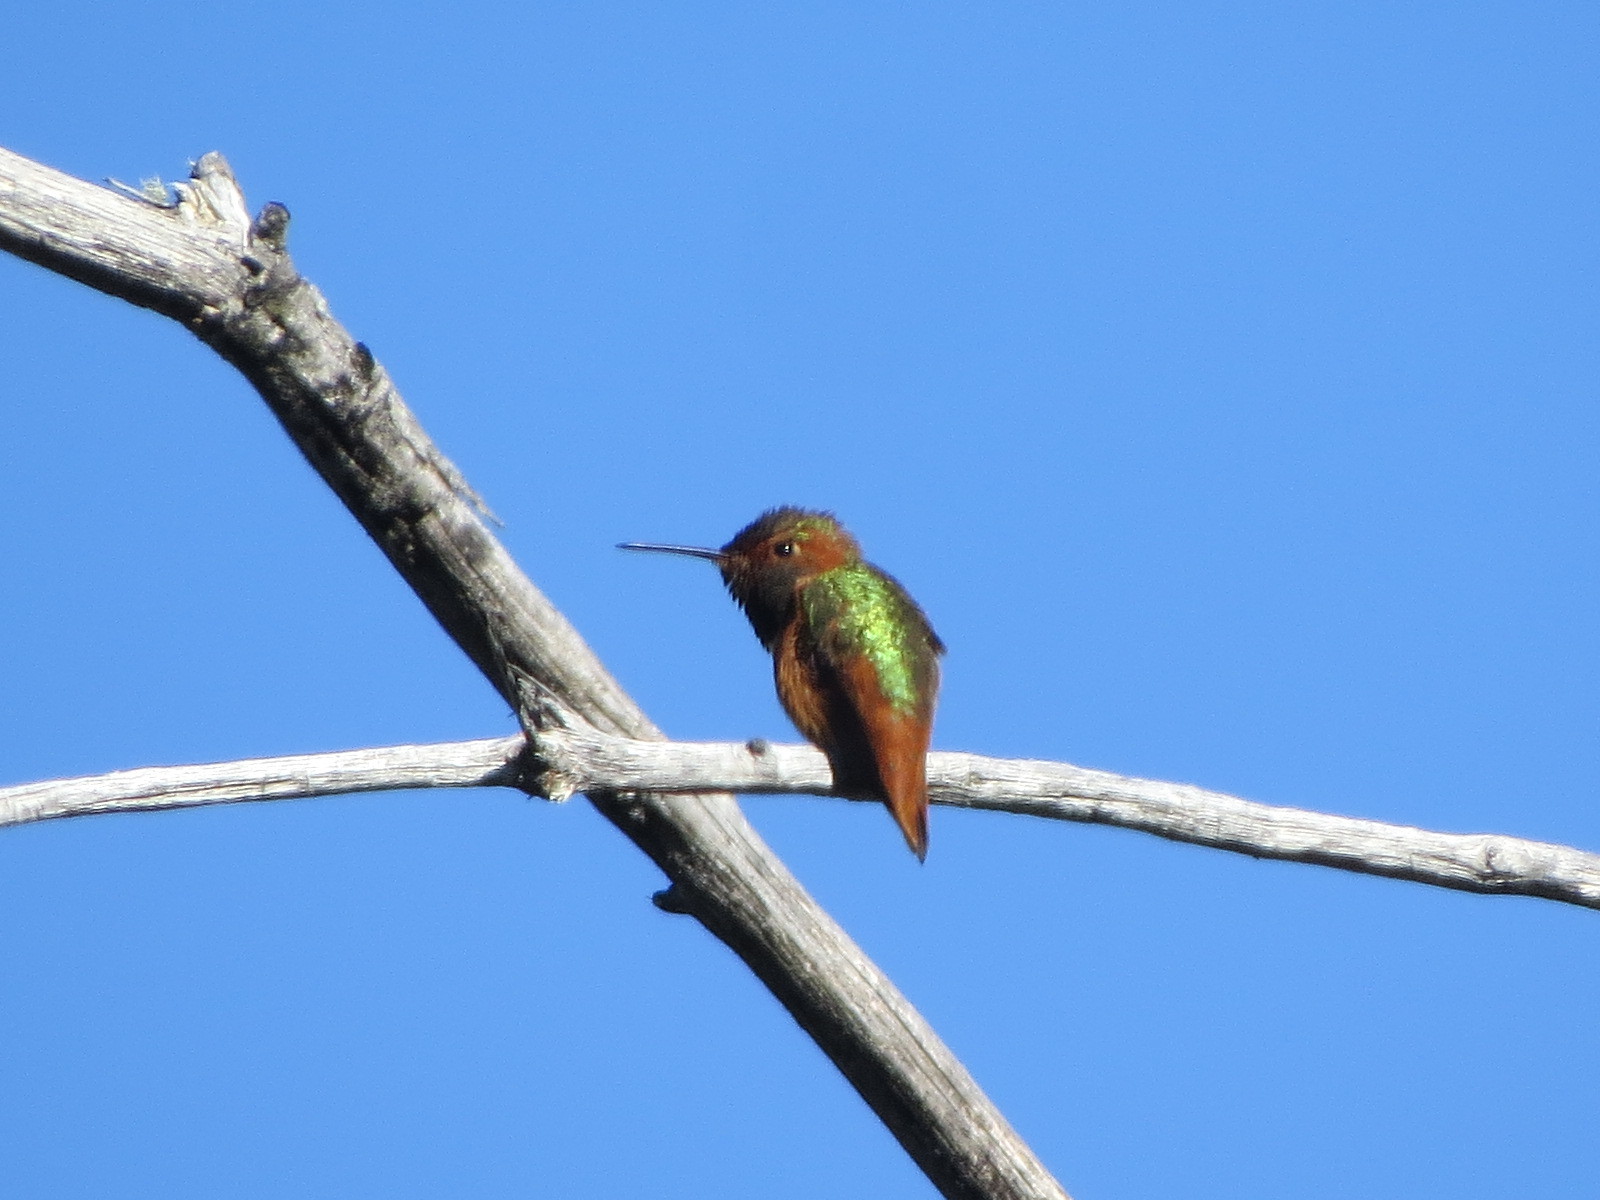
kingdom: Animalia
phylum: Chordata
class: Aves
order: Apodiformes
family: Trochilidae
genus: Selasphorus
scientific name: Selasphorus sasin
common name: Allen's hummingbird
